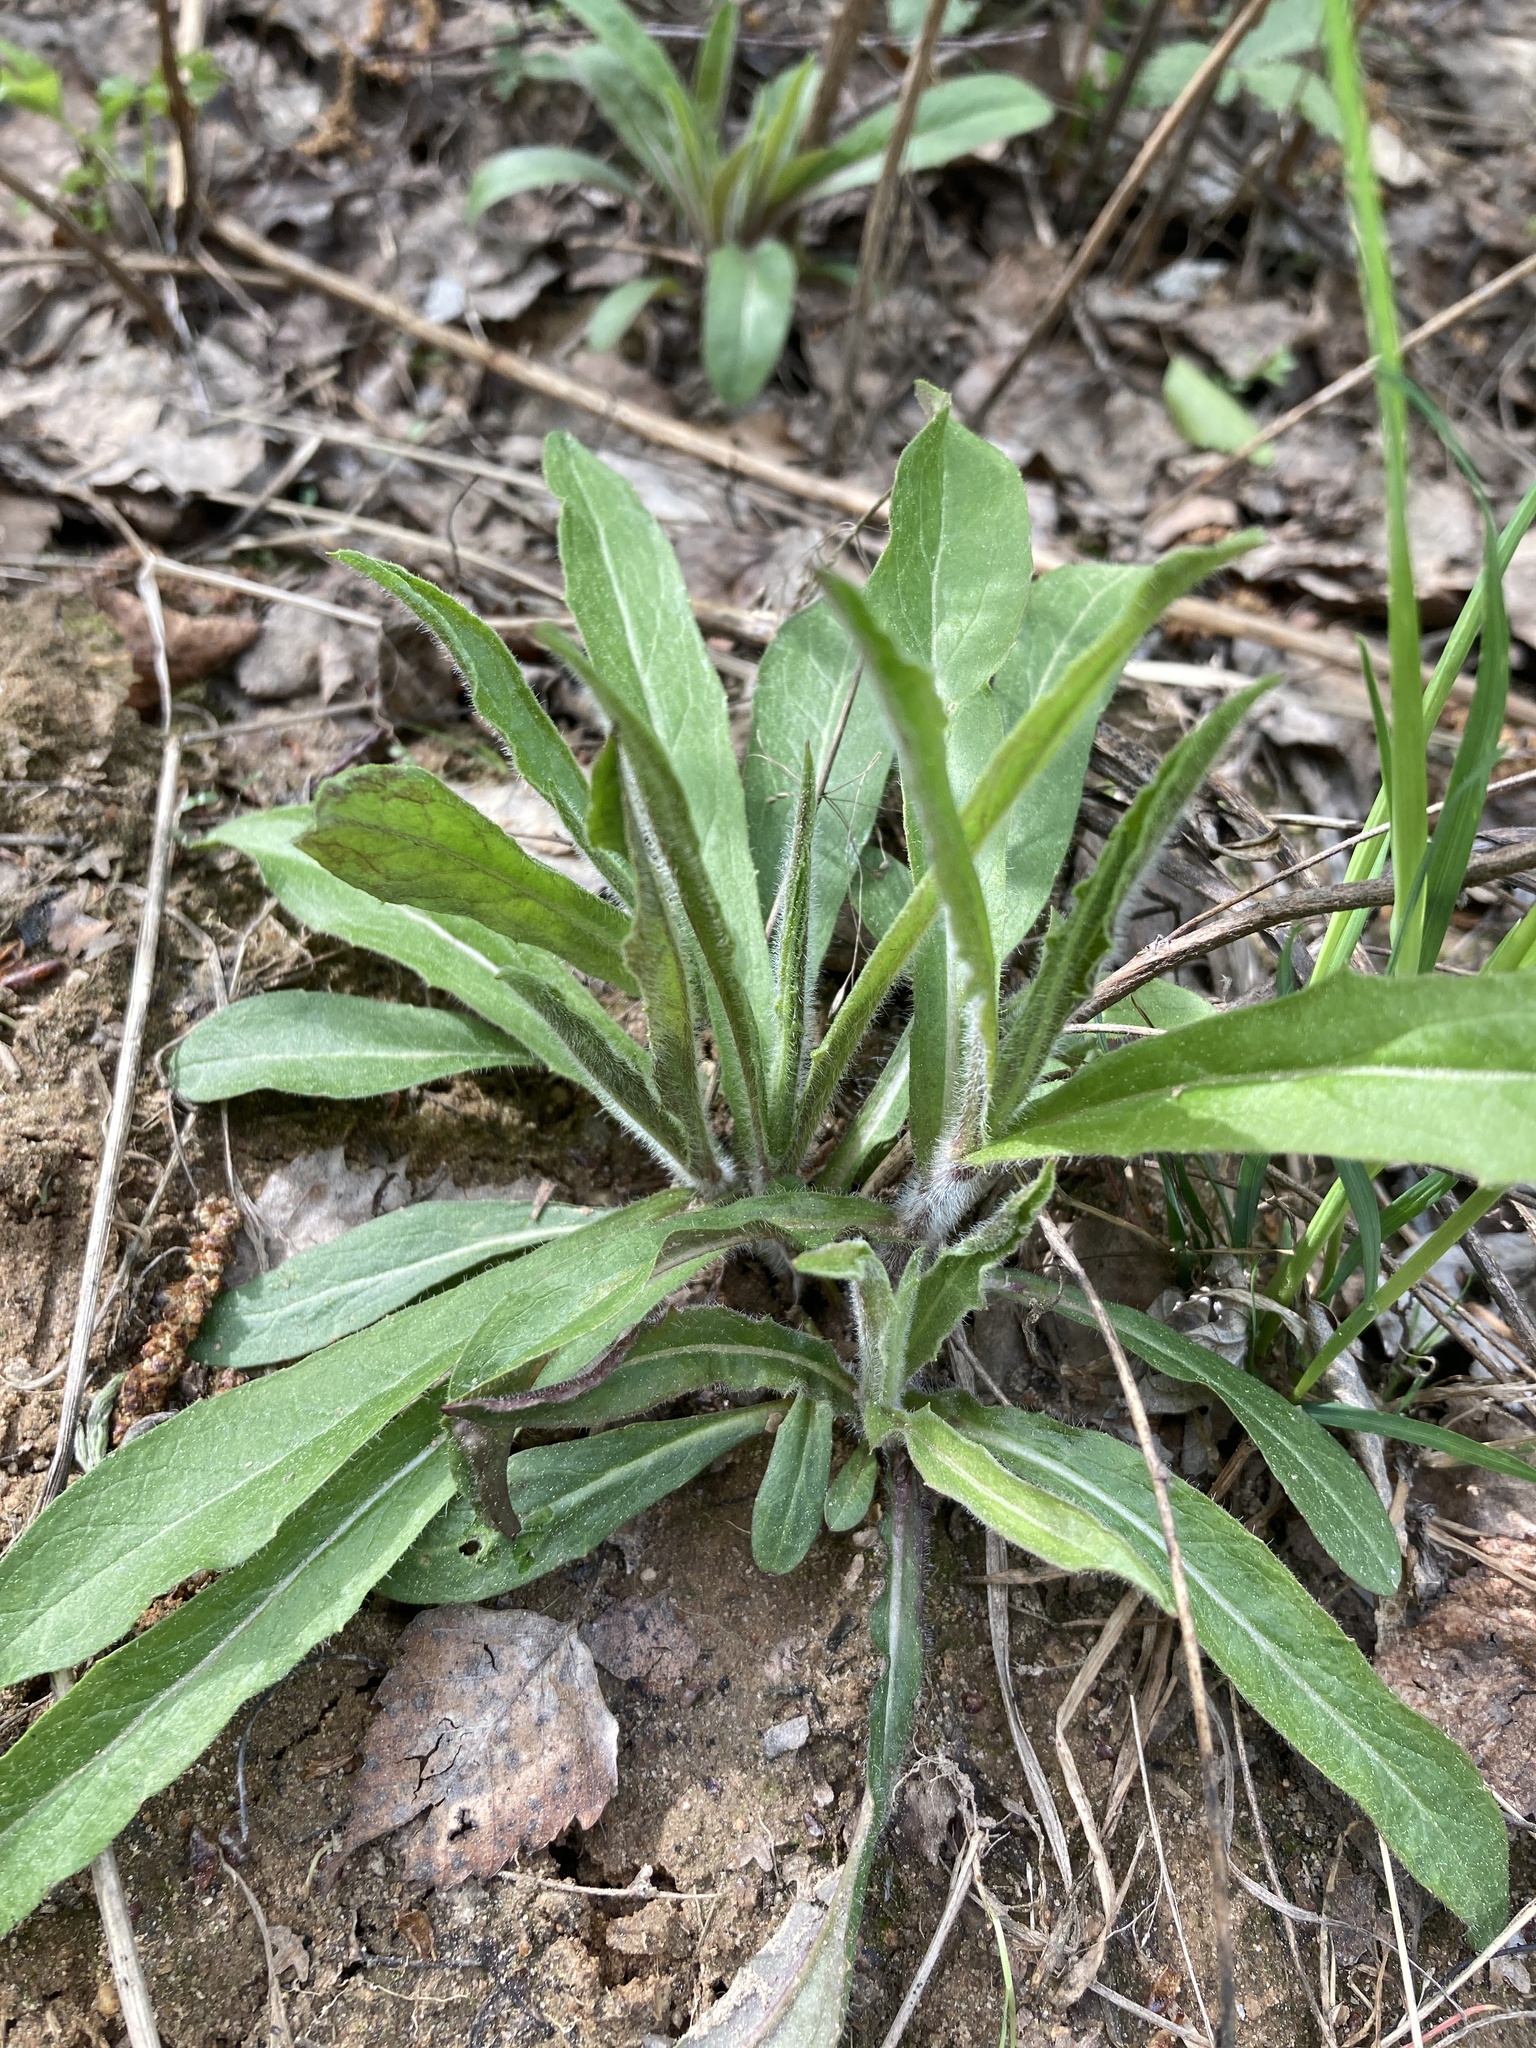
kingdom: Plantae
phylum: Tracheophyta
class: Magnoliopsida
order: Asterales
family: Asteraceae
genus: Hieracium
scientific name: Hieracium umbellatum
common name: Northern hawkweed
